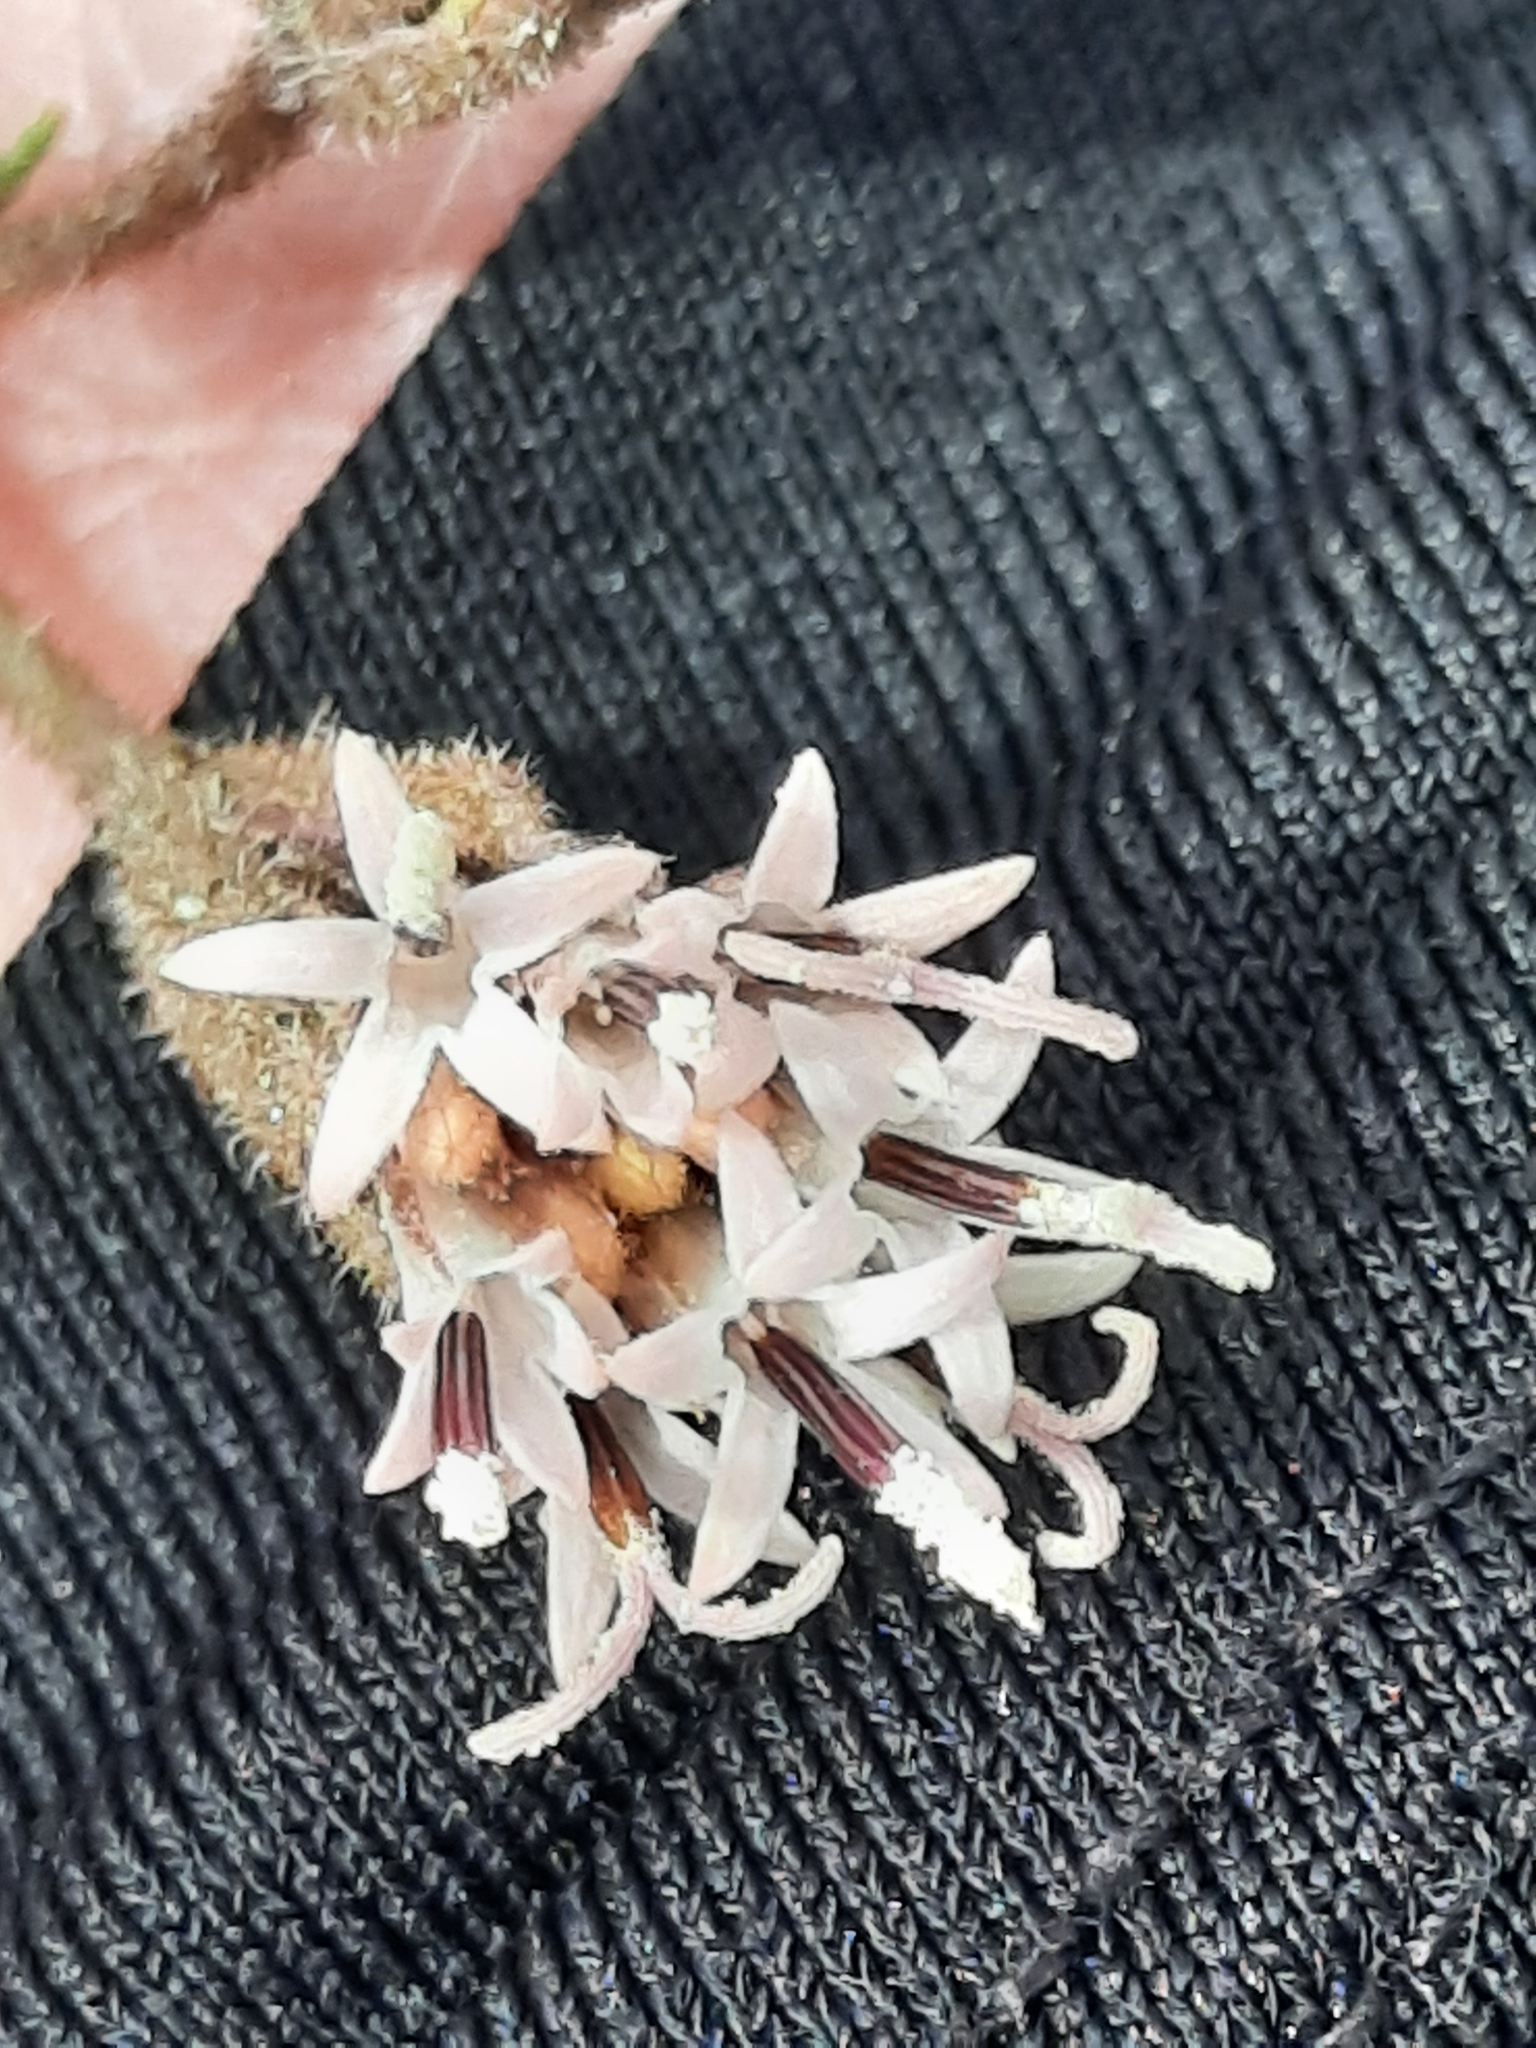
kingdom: Plantae
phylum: Tracheophyta
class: Magnoliopsida
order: Asterales
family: Asteraceae
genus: Palafoxia
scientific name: Palafoxia arida
